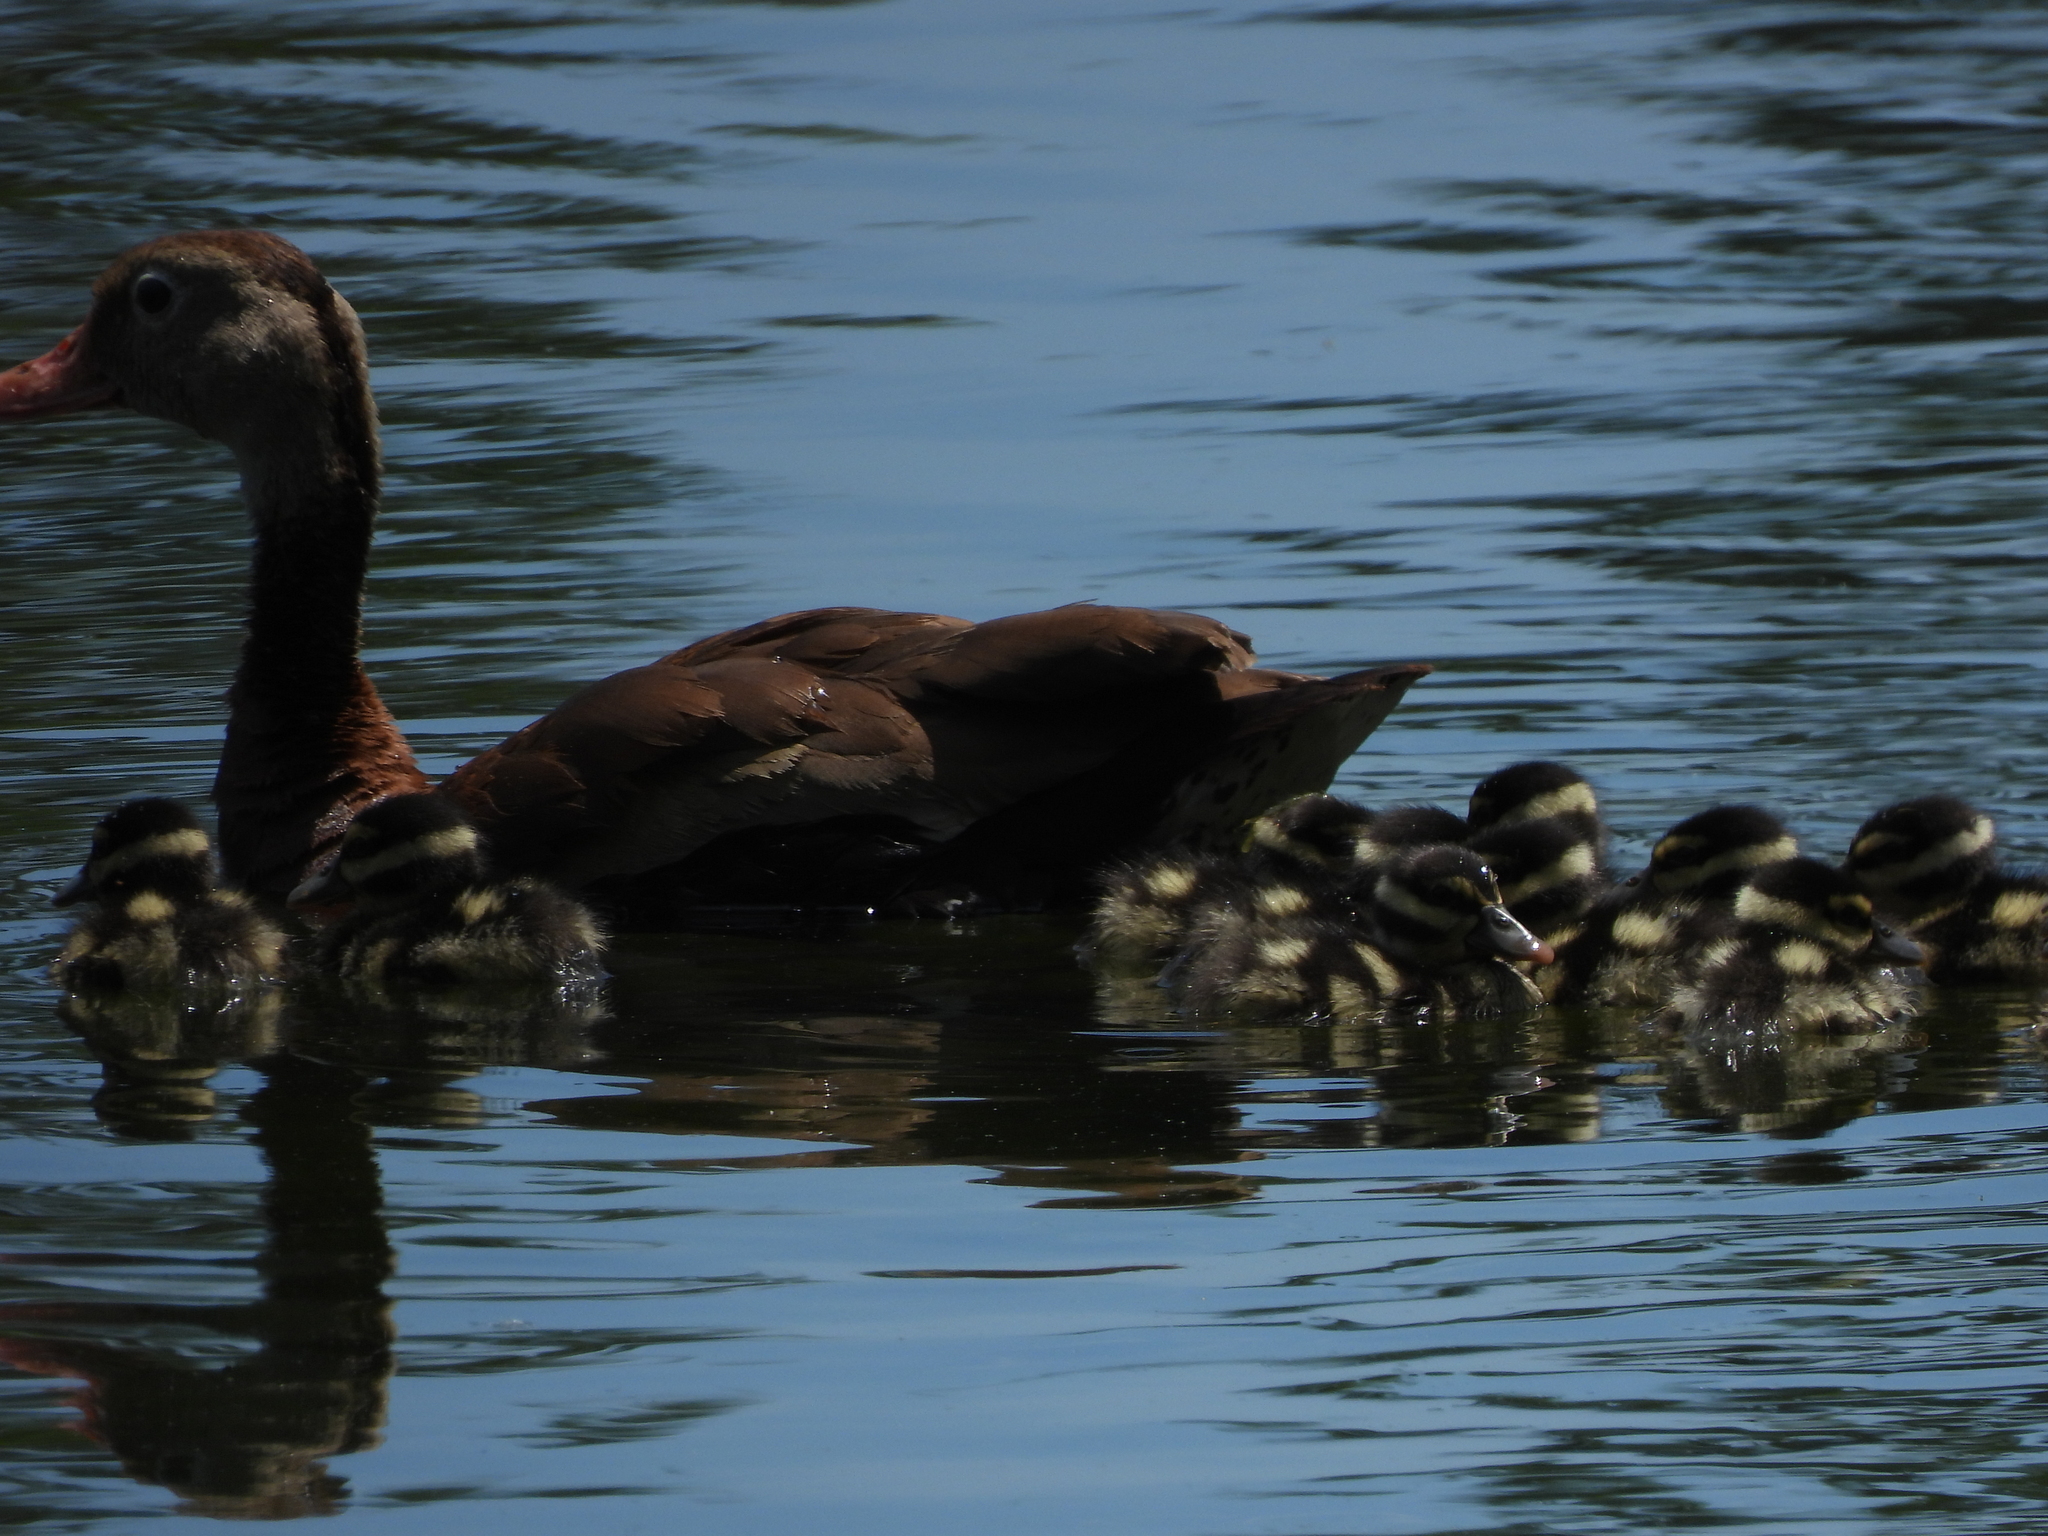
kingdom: Animalia
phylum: Chordata
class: Aves
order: Anseriformes
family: Anatidae
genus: Dendrocygna
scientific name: Dendrocygna autumnalis
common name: Black-bellied whistling duck
